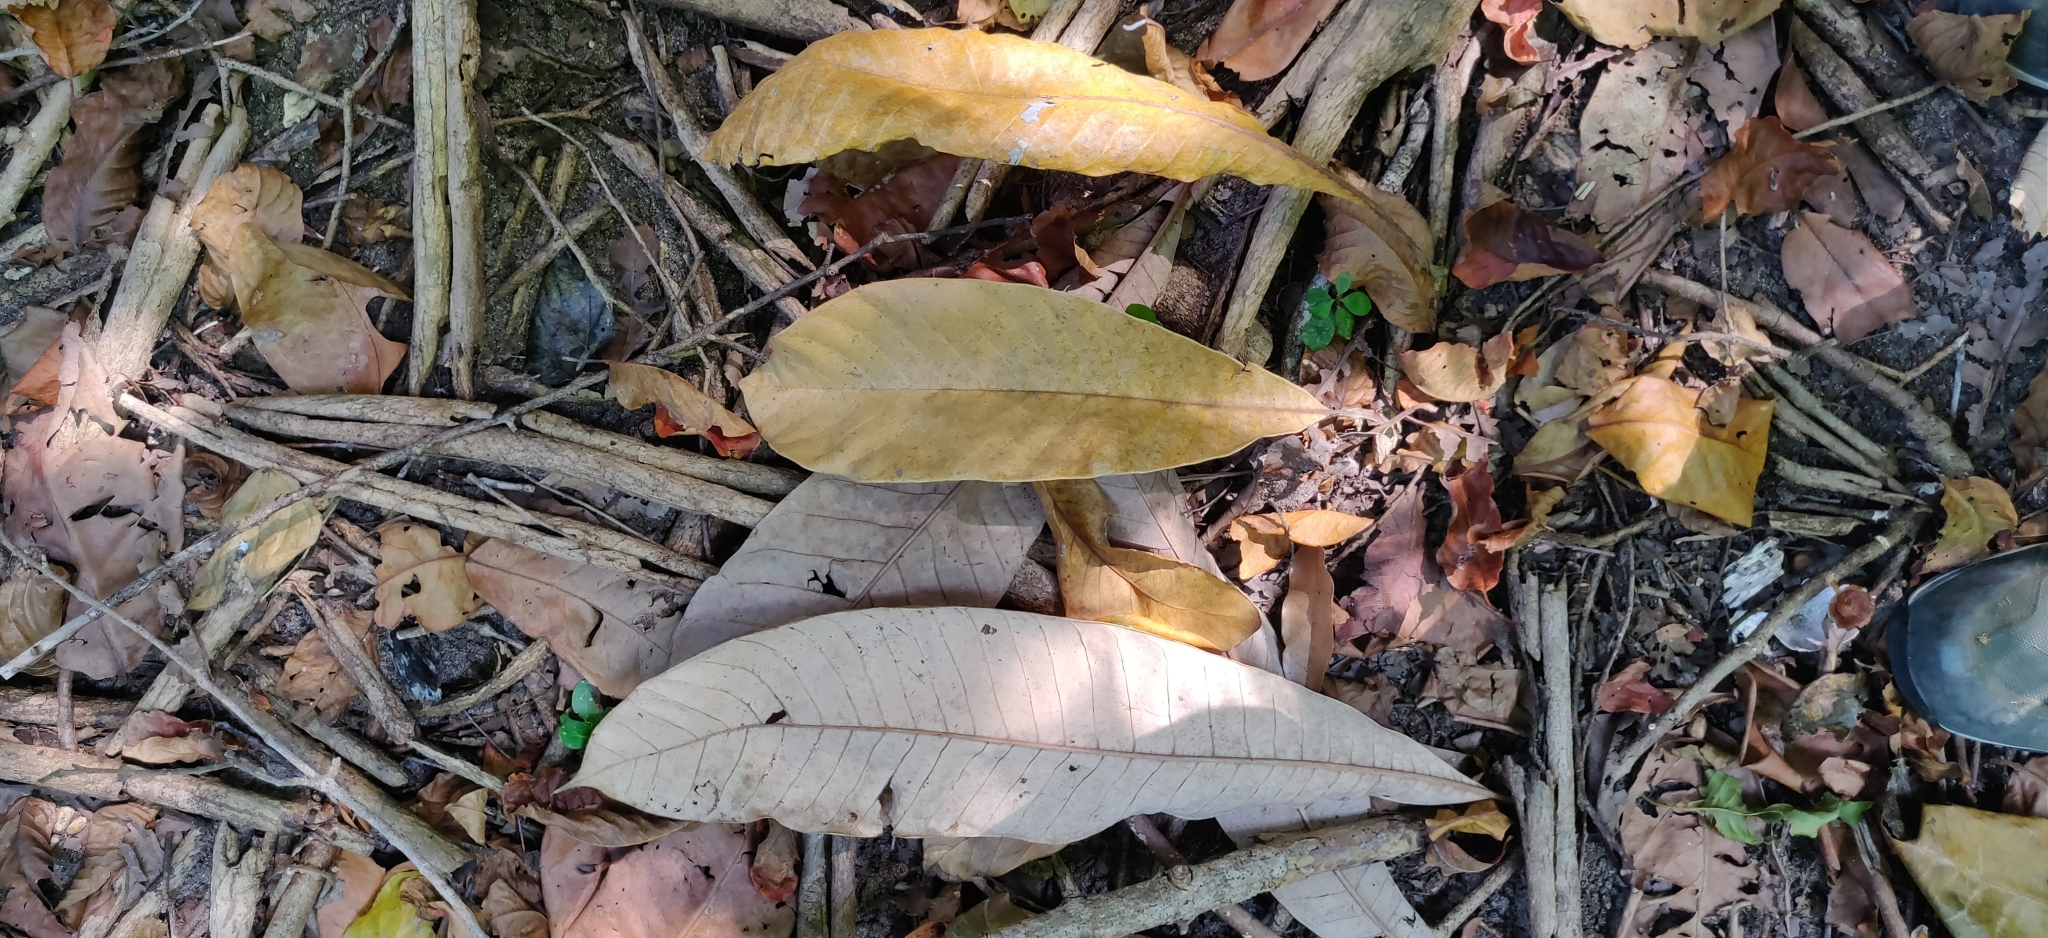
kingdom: Plantae
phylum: Tracheophyta
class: Magnoliopsida
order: Sapindales
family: Anacardiaceae
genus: Semecarpus
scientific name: Semecarpus prainii
